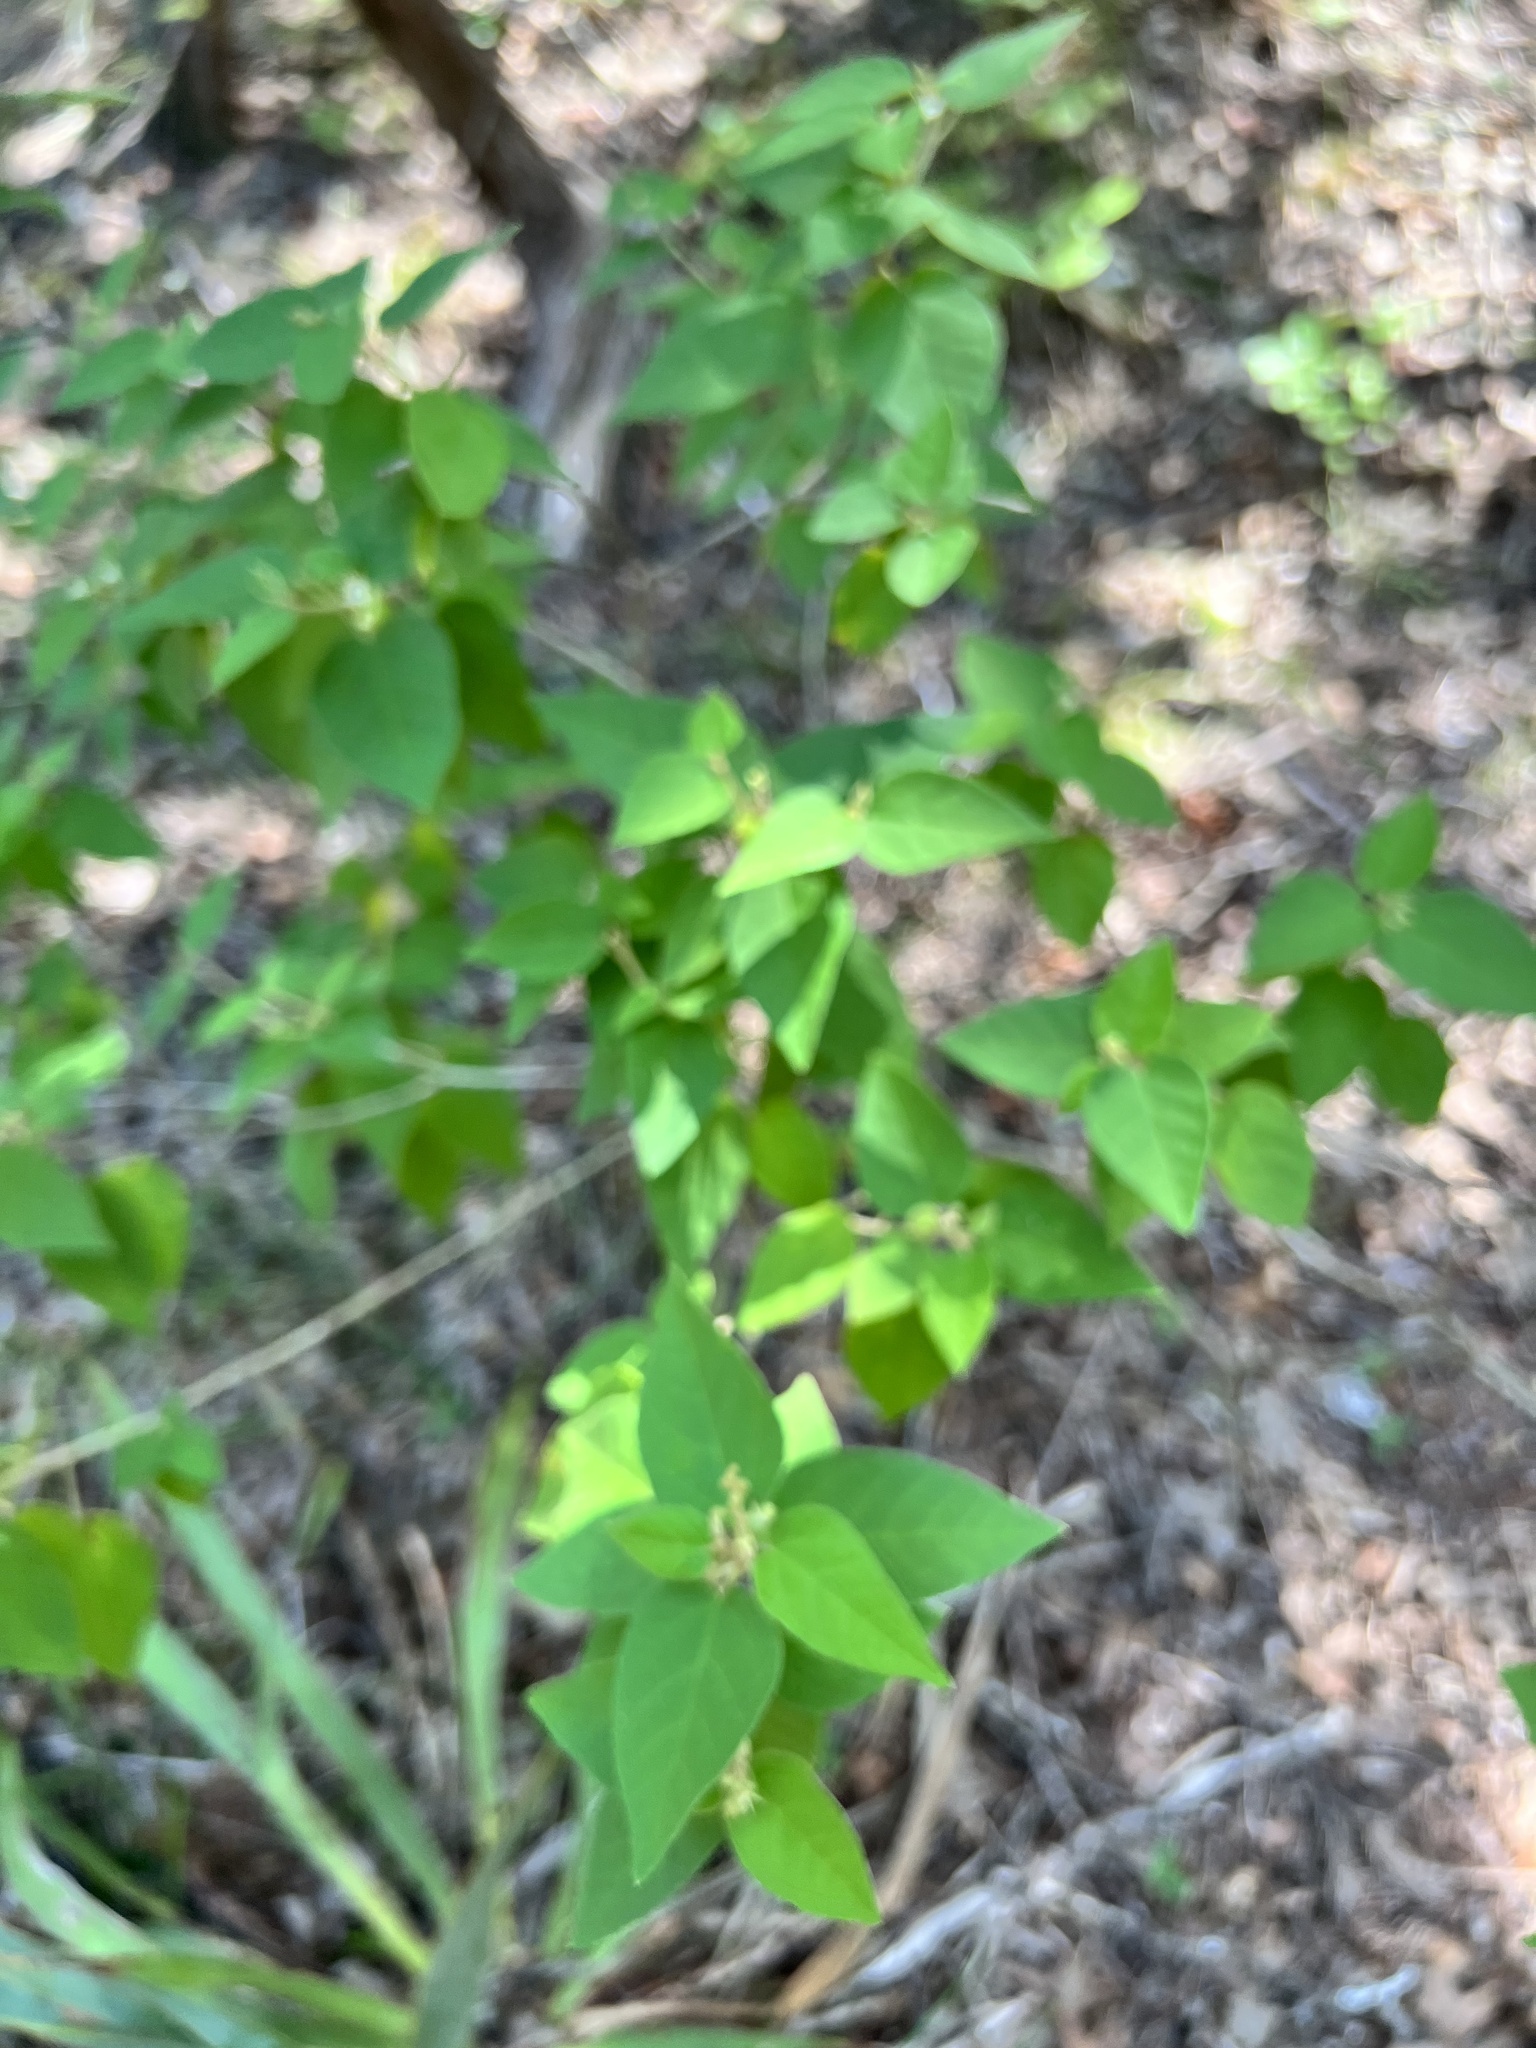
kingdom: Plantae
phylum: Tracheophyta
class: Magnoliopsida
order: Malpighiales
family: Euphorbiaceae
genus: Croton
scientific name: Croton fruticulosus
